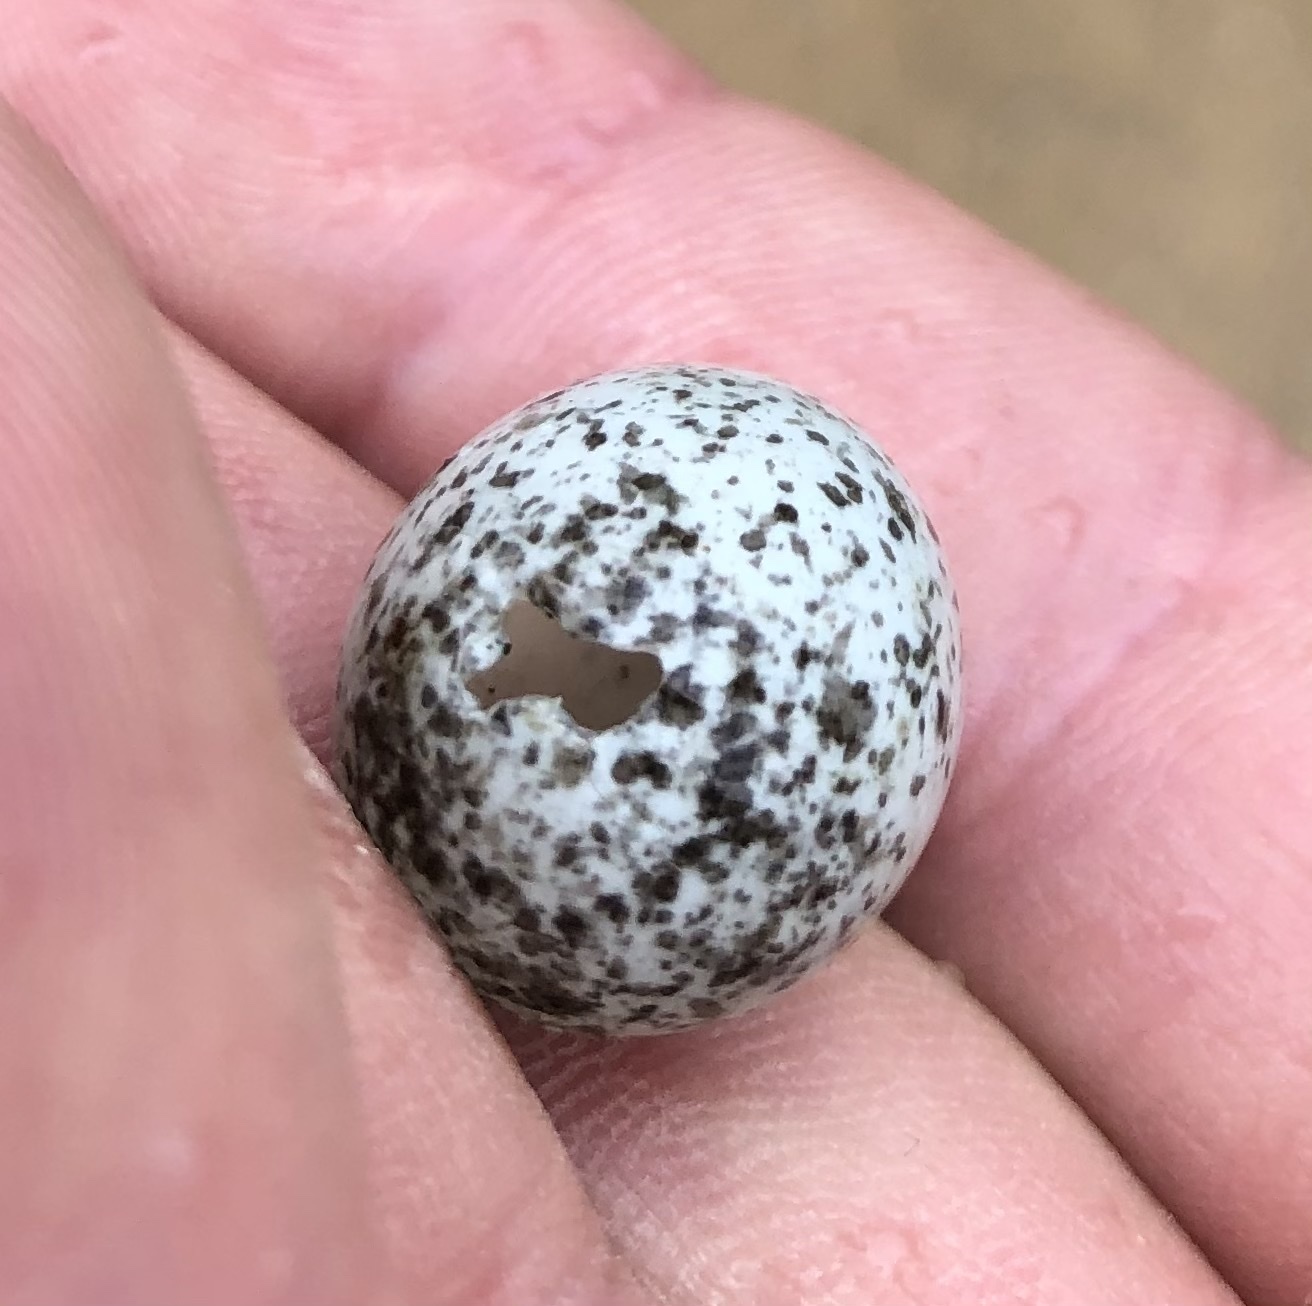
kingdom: Animalia
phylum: Chordata
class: Aves
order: Passeriformes
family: Passeridae
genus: Passer
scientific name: Passer domesticus
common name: House sparrow
